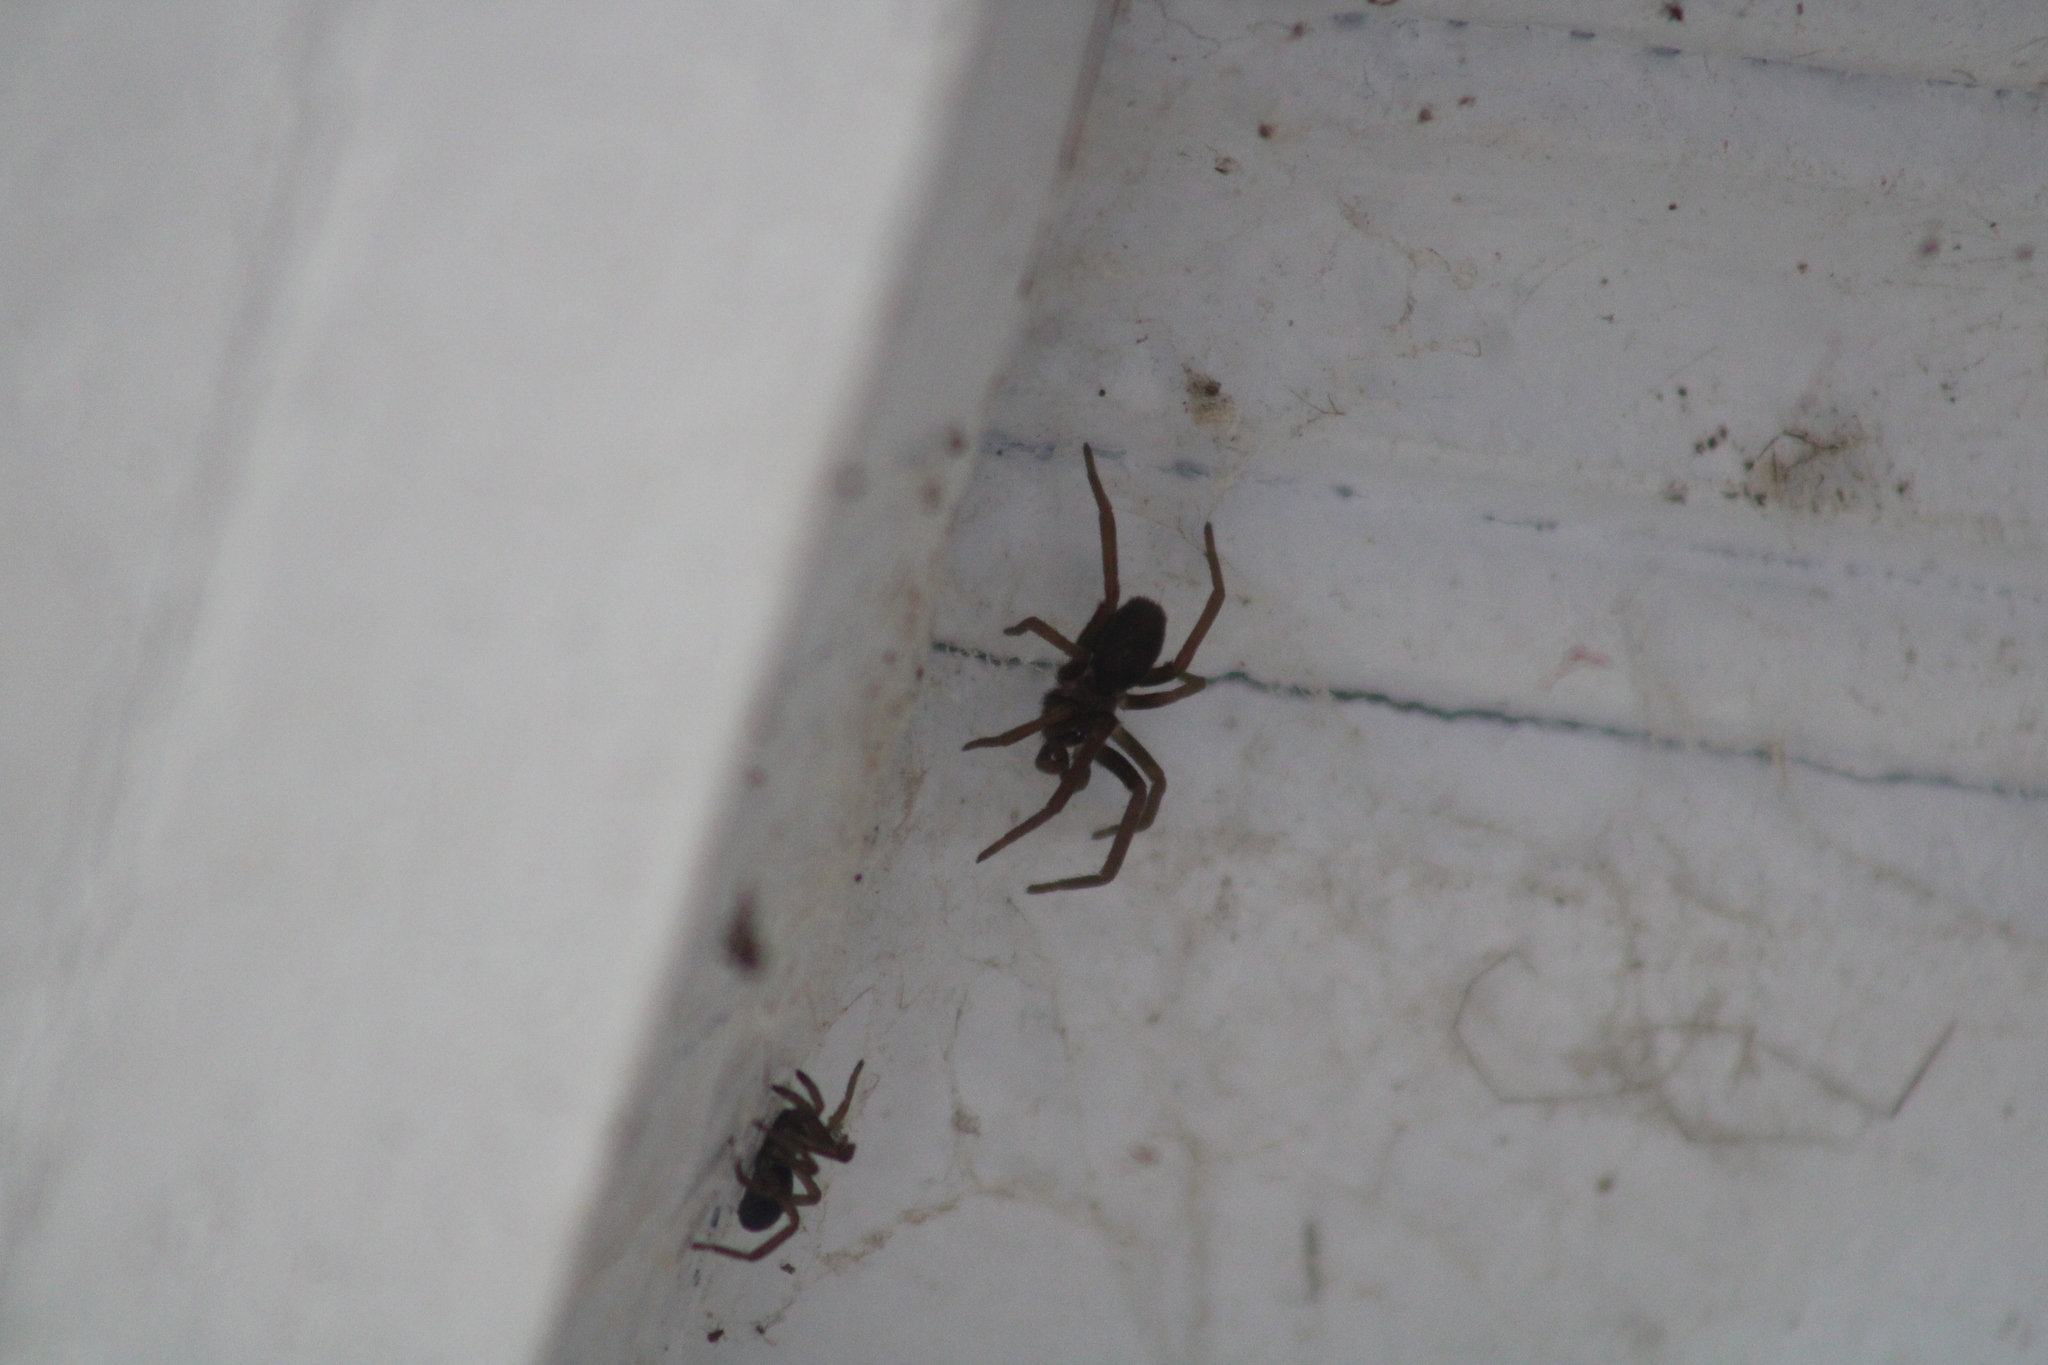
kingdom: Animalia
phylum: Arthropoda
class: Arachnida
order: Araneae
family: Filistatidae
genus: Kukulcania
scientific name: Kukulcania hibernalis
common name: Crevice weaver
